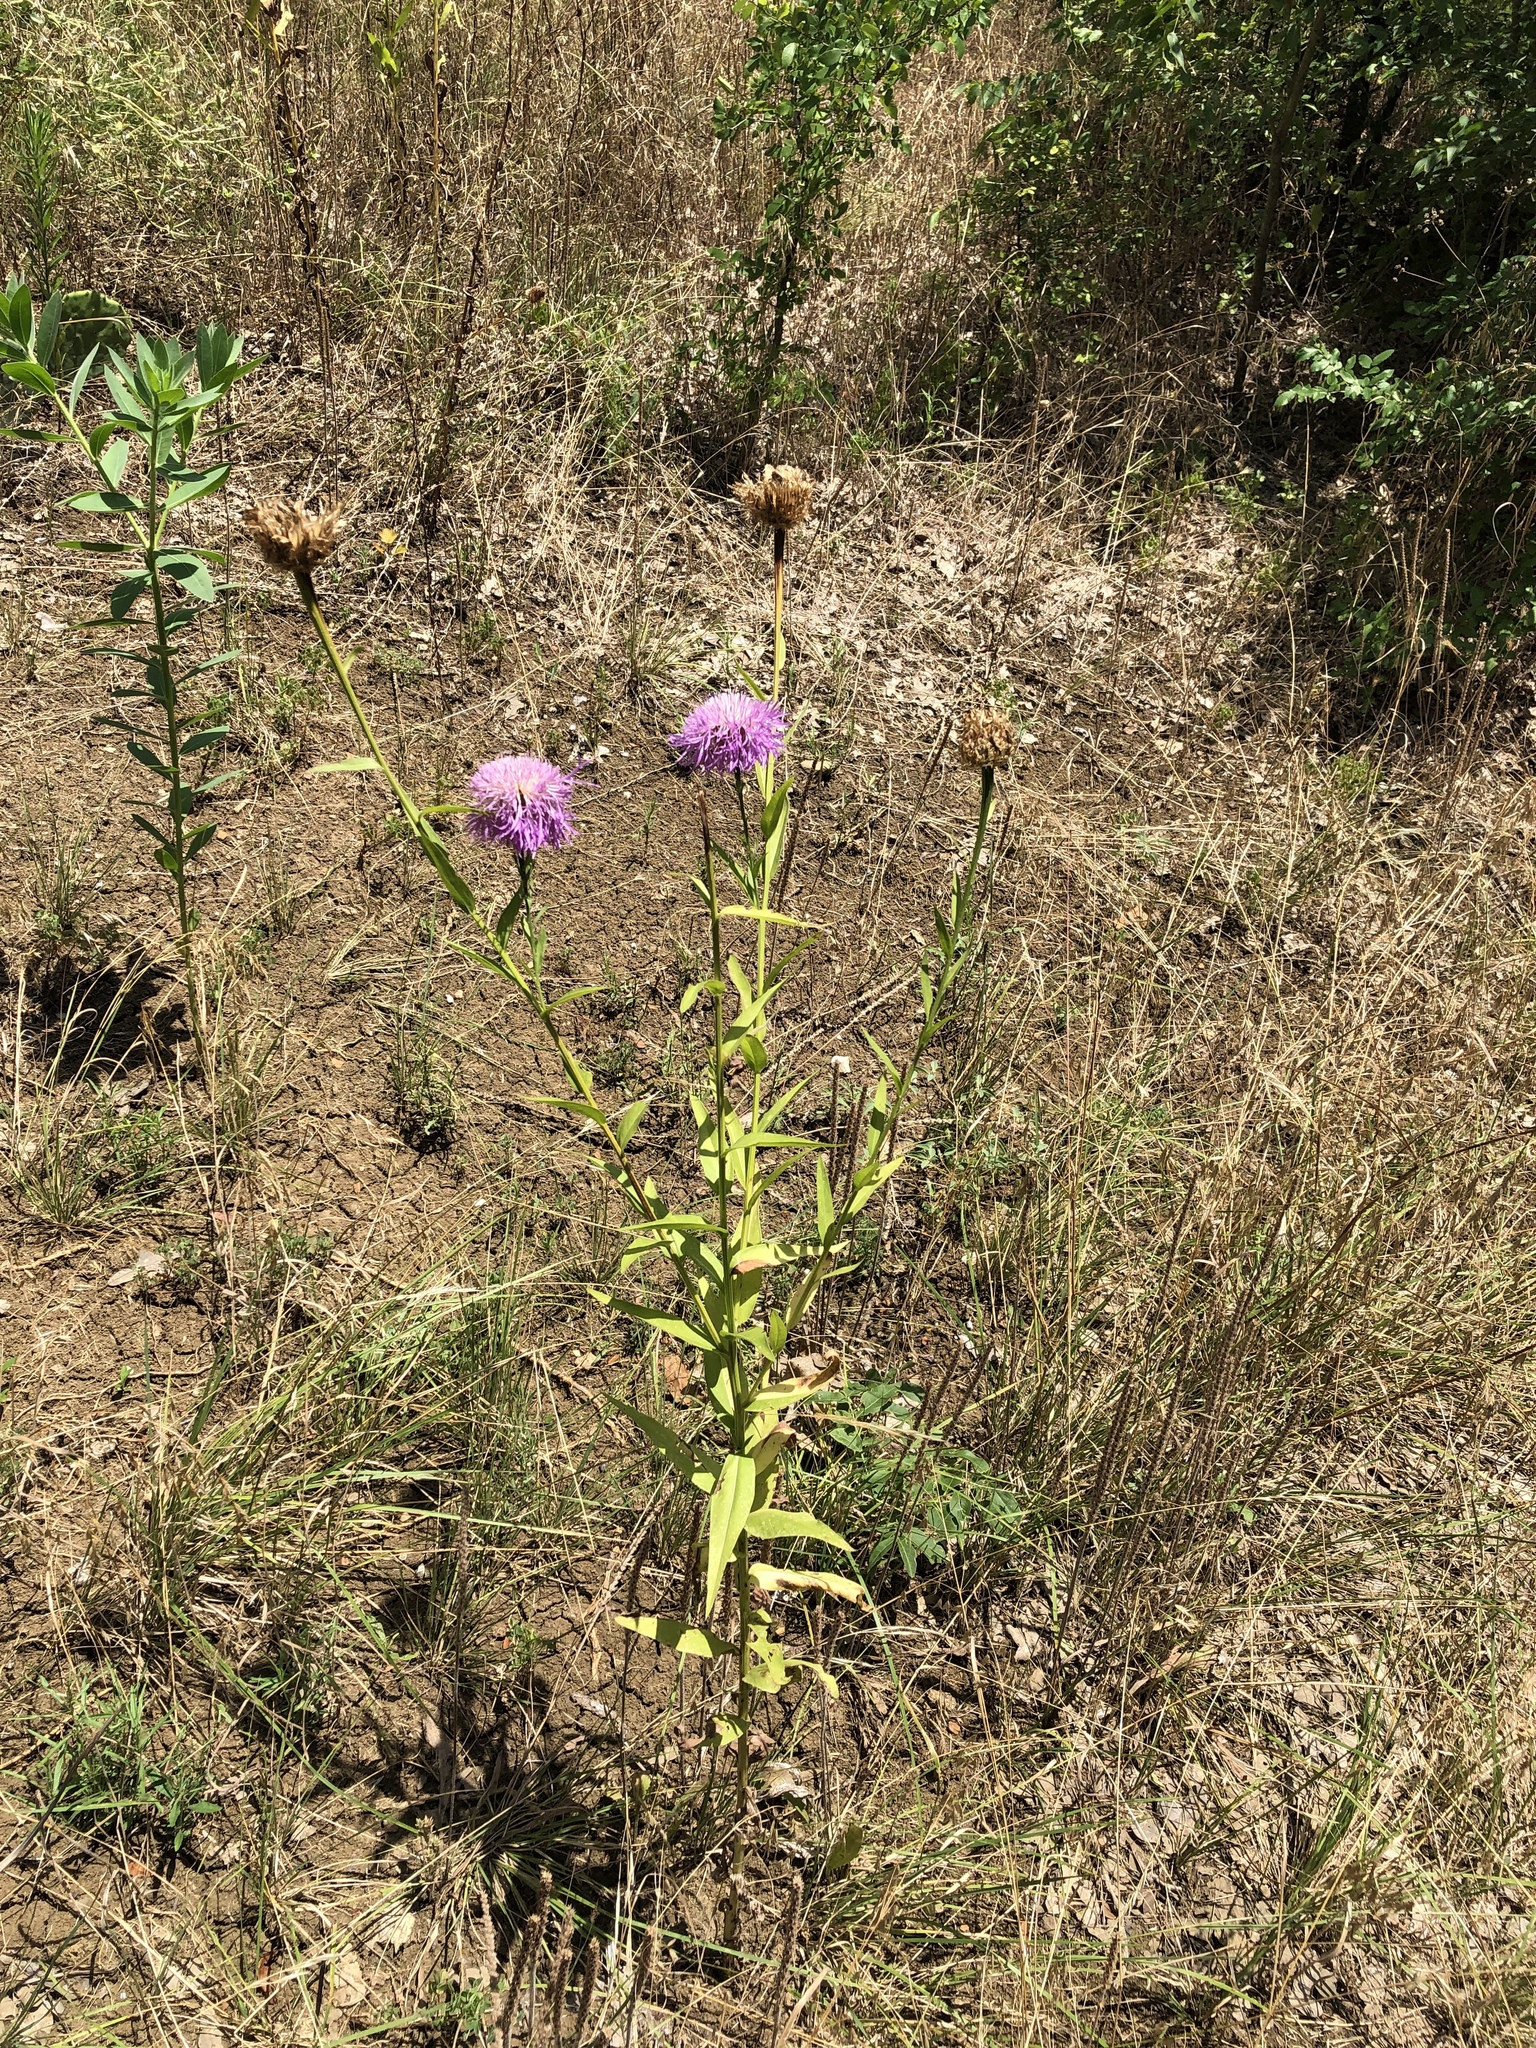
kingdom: Plantae
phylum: Tracheophyta
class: Magnoliopsida
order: Asterales
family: Asteraceae
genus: Plectocephalus
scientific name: Plectocephalus americanus
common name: American basket-flower
